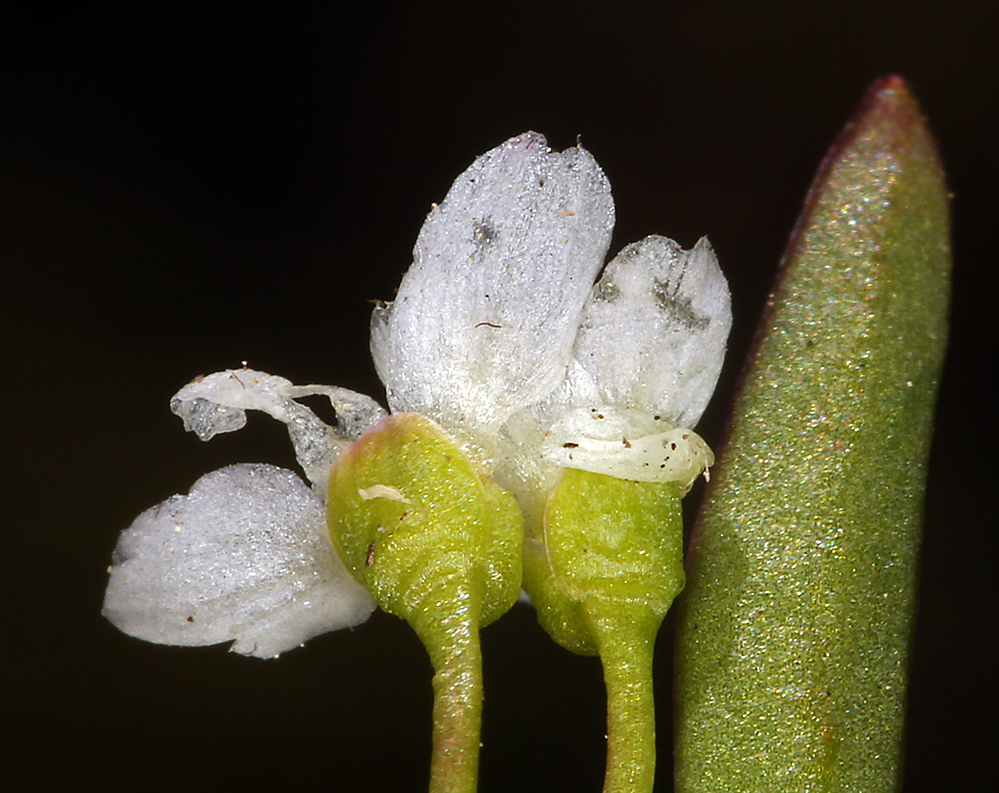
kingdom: Plantae
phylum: Tracheophyta
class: Magnoliopsida
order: Caryophyllales
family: Montiaceae
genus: Montia
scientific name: Montia chamissoi
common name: Chamisso's candyflower
